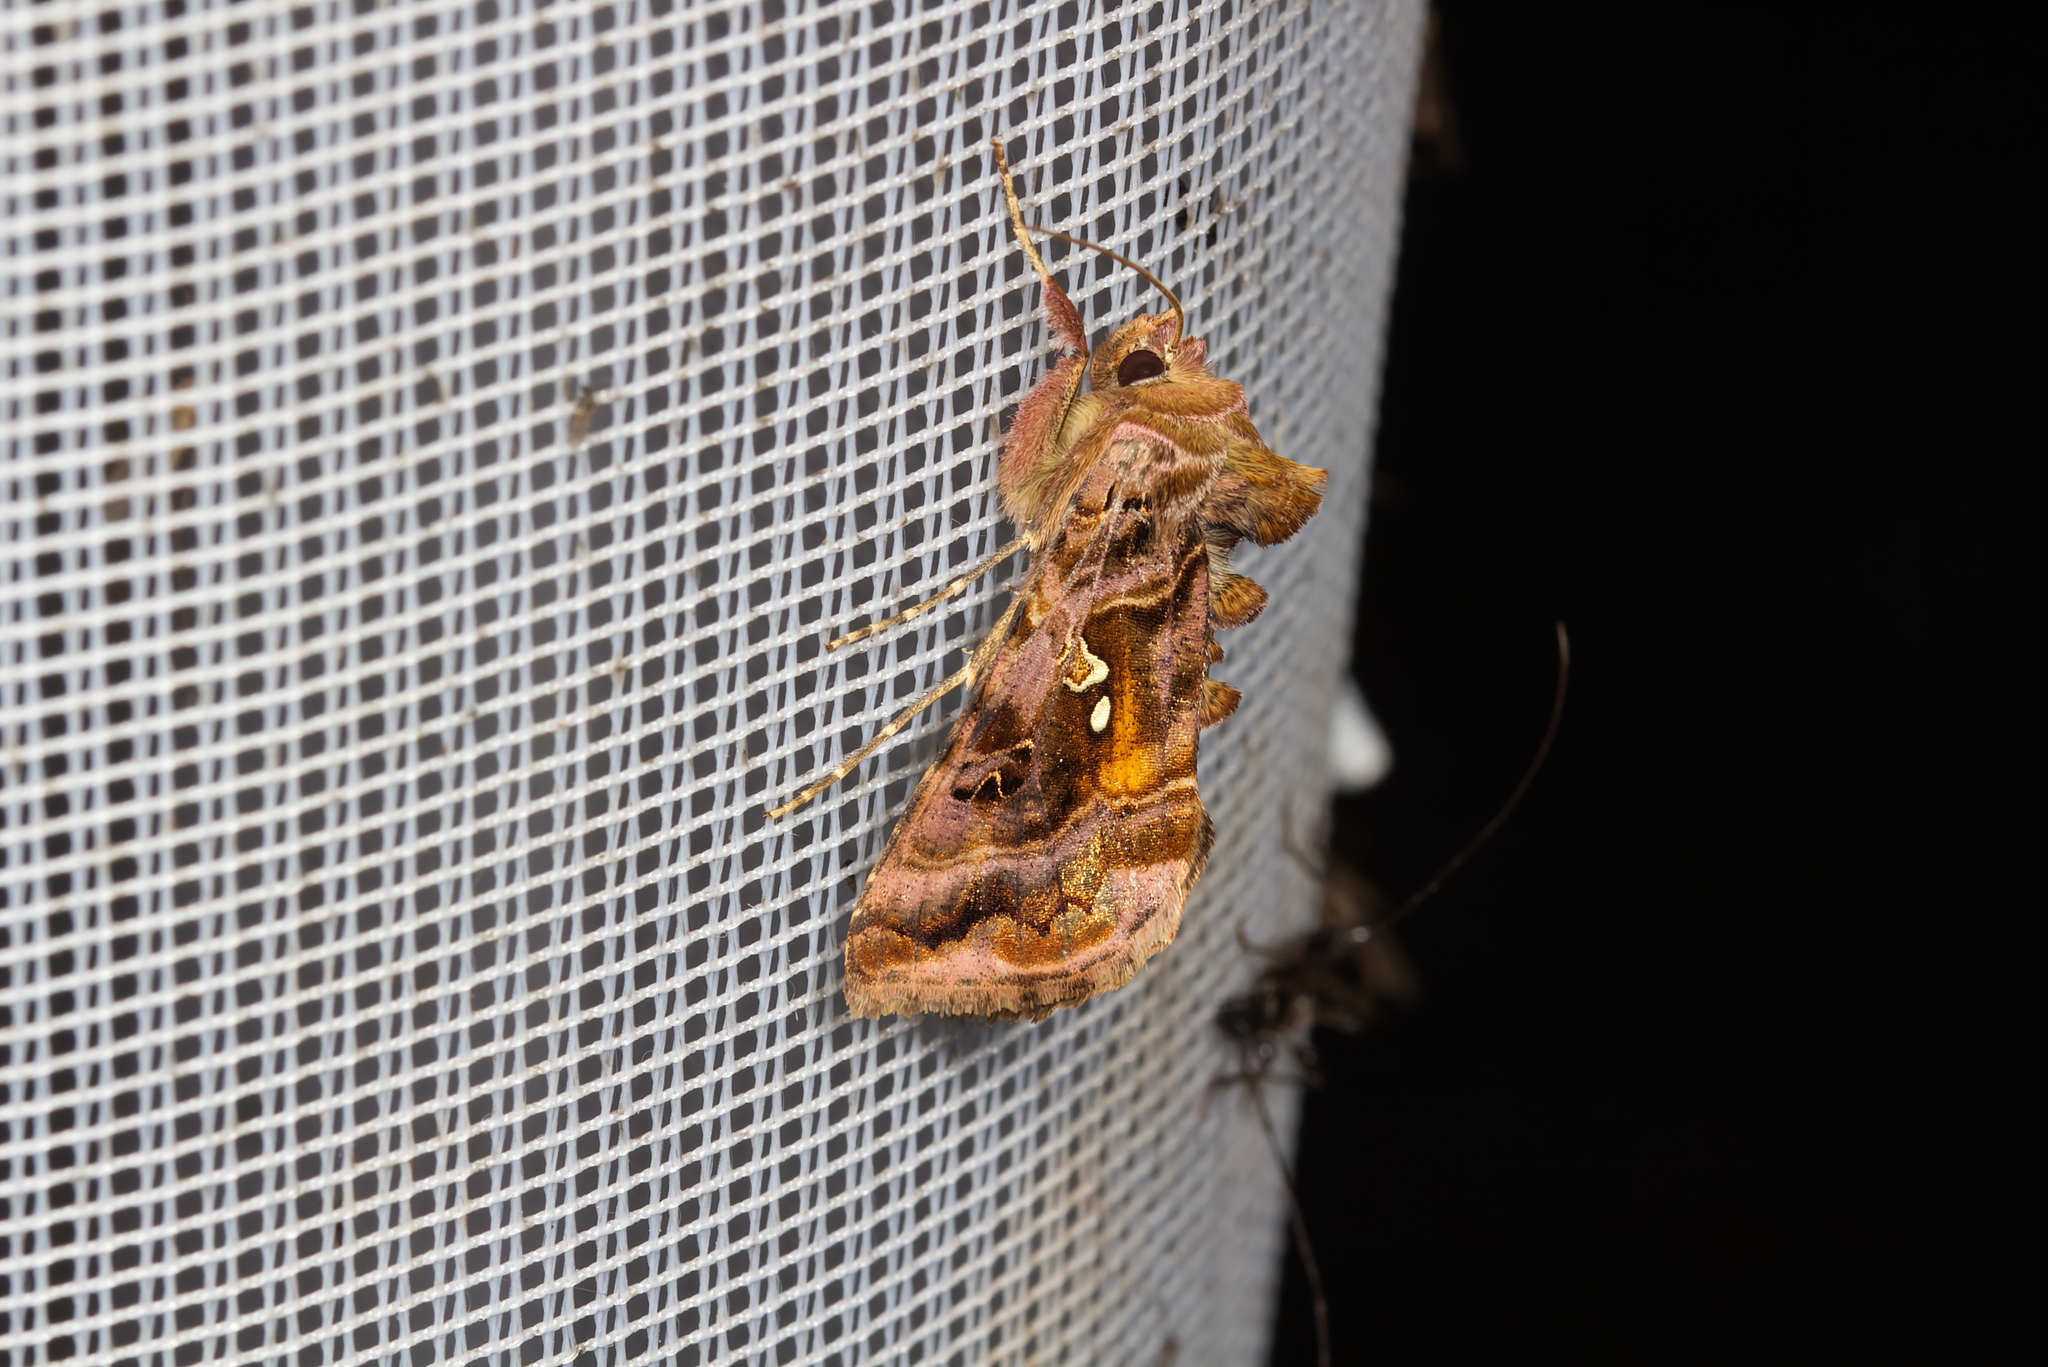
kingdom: Animalia
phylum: Arthropoda
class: Insecta
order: Lepidoptera
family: Noctuidae
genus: Autographa
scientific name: Autographa pulchrina
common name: Beautiful golden y
